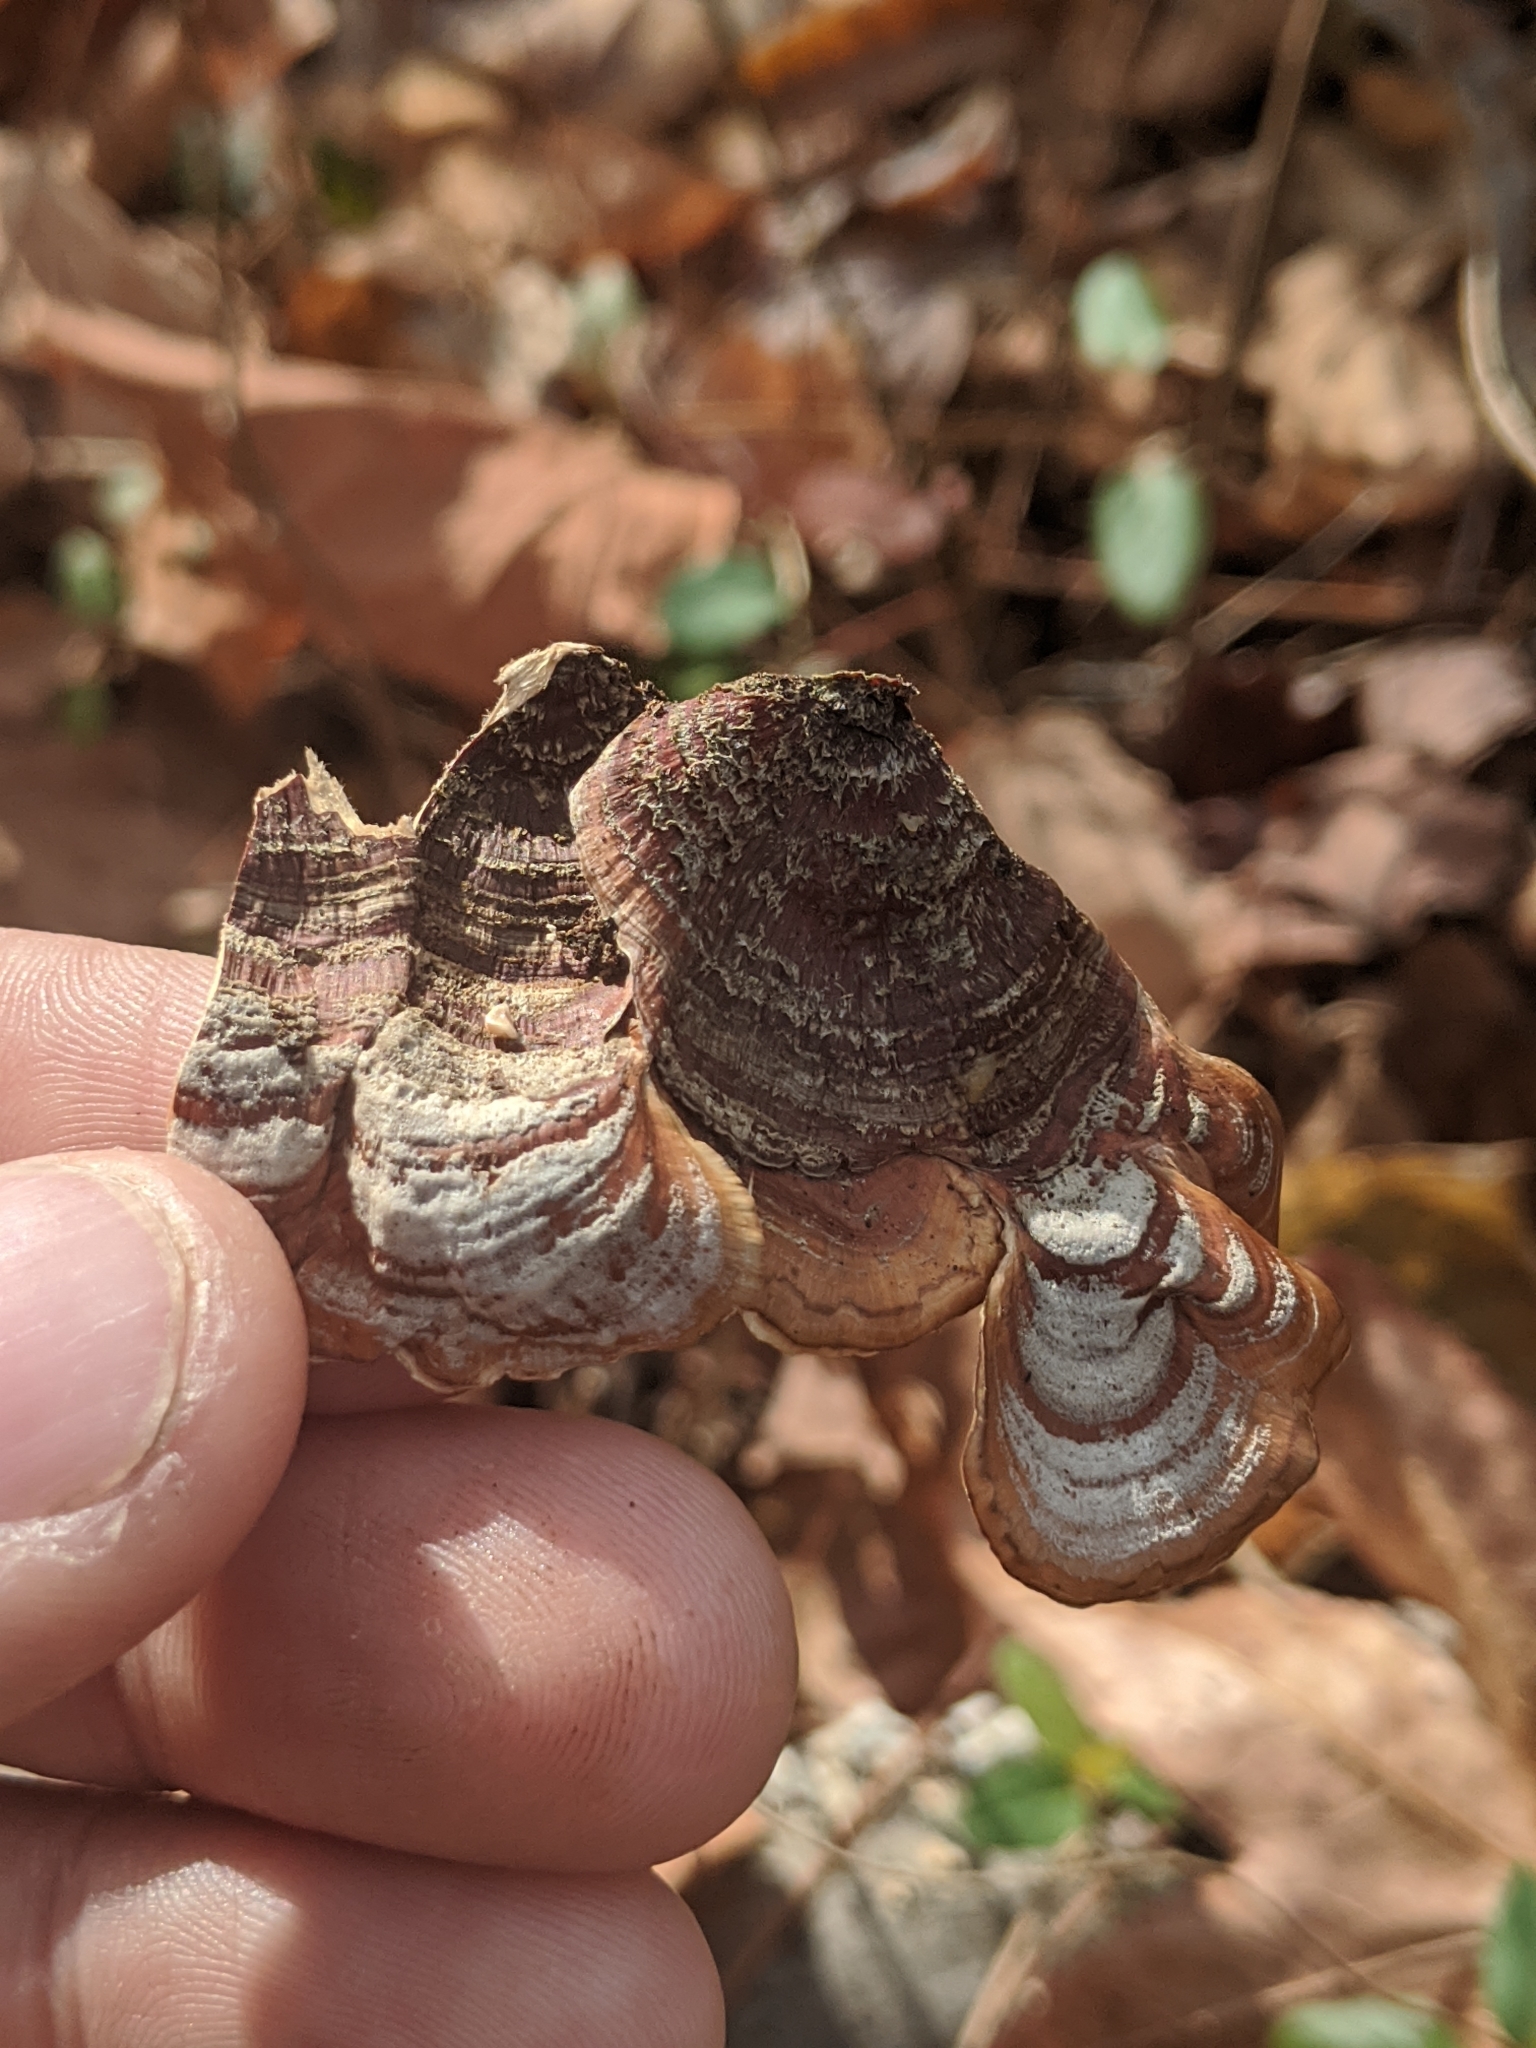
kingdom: Fungi
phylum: Basidiomycota
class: Agaricomycetes
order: Russulales
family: Stereaceae
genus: Stereum
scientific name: Stereum lobatum
